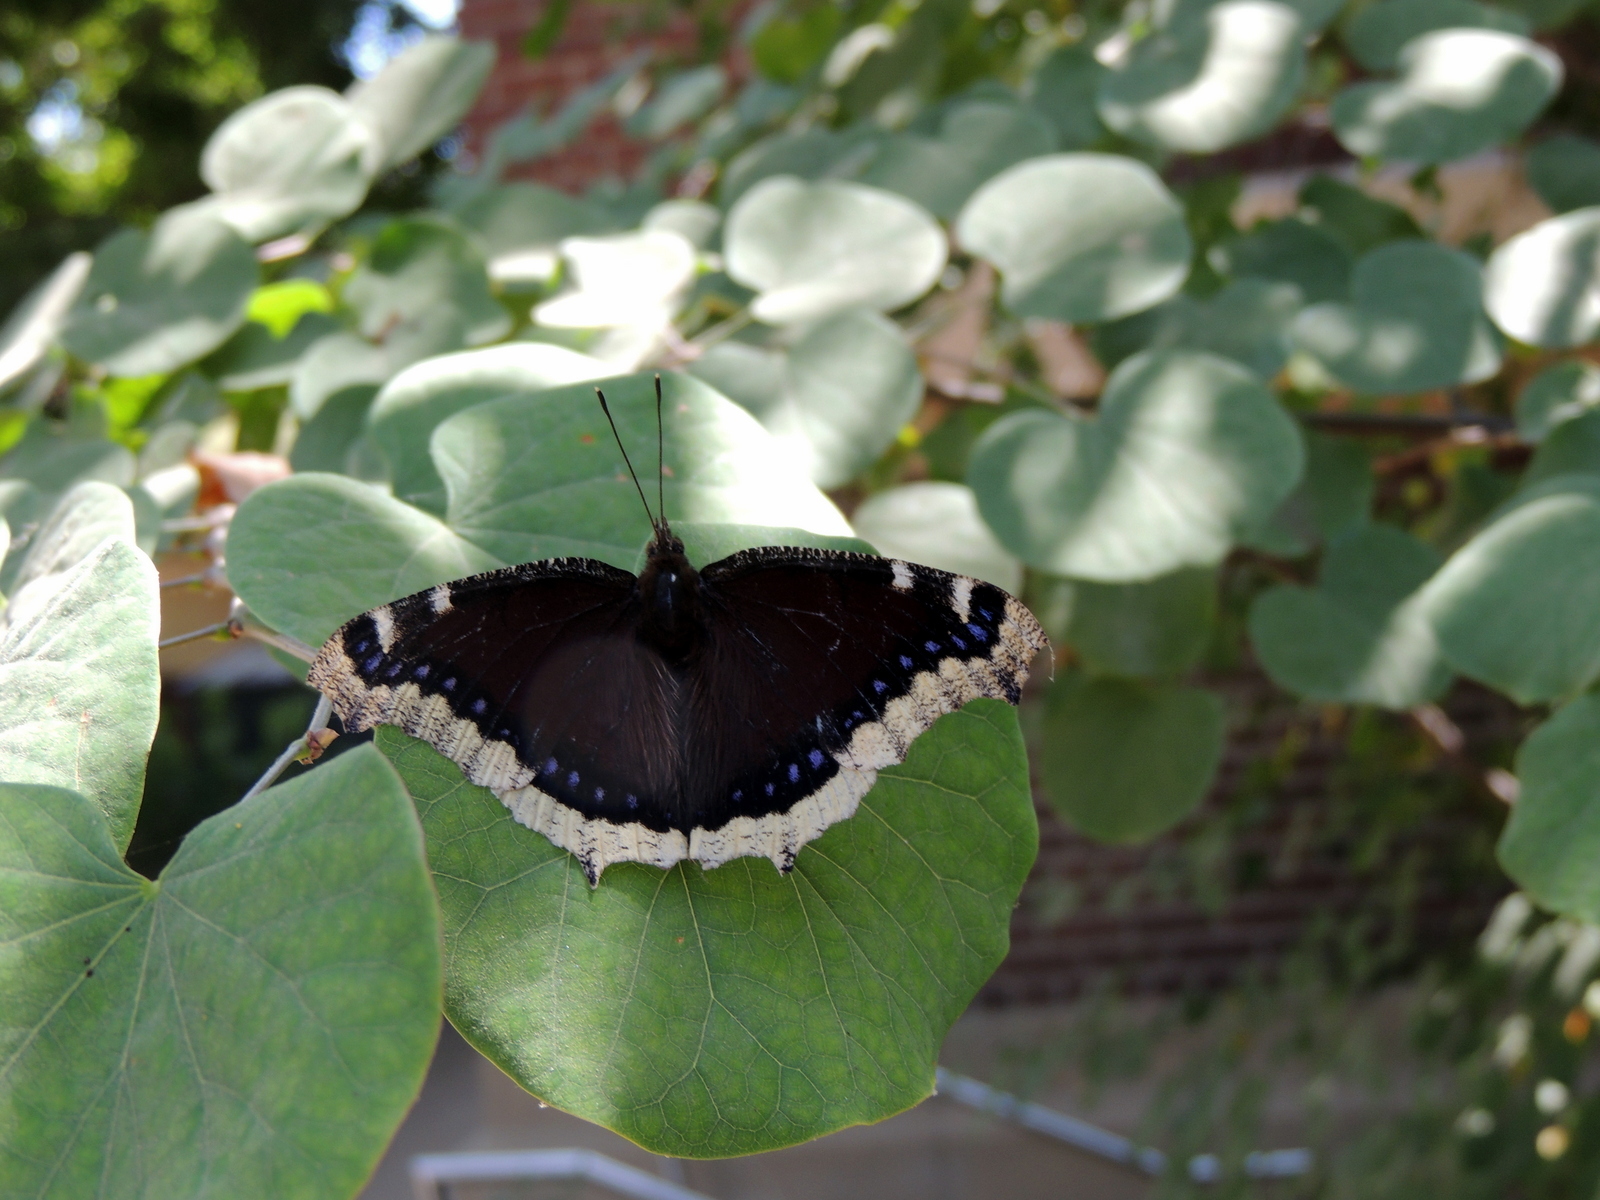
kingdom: Animalia
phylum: Arthropoda
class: Insecta
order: Lepidoptera
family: Nymphalidae
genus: Nymphalis
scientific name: Nymphalis antiopa
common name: Camberwell beauty
